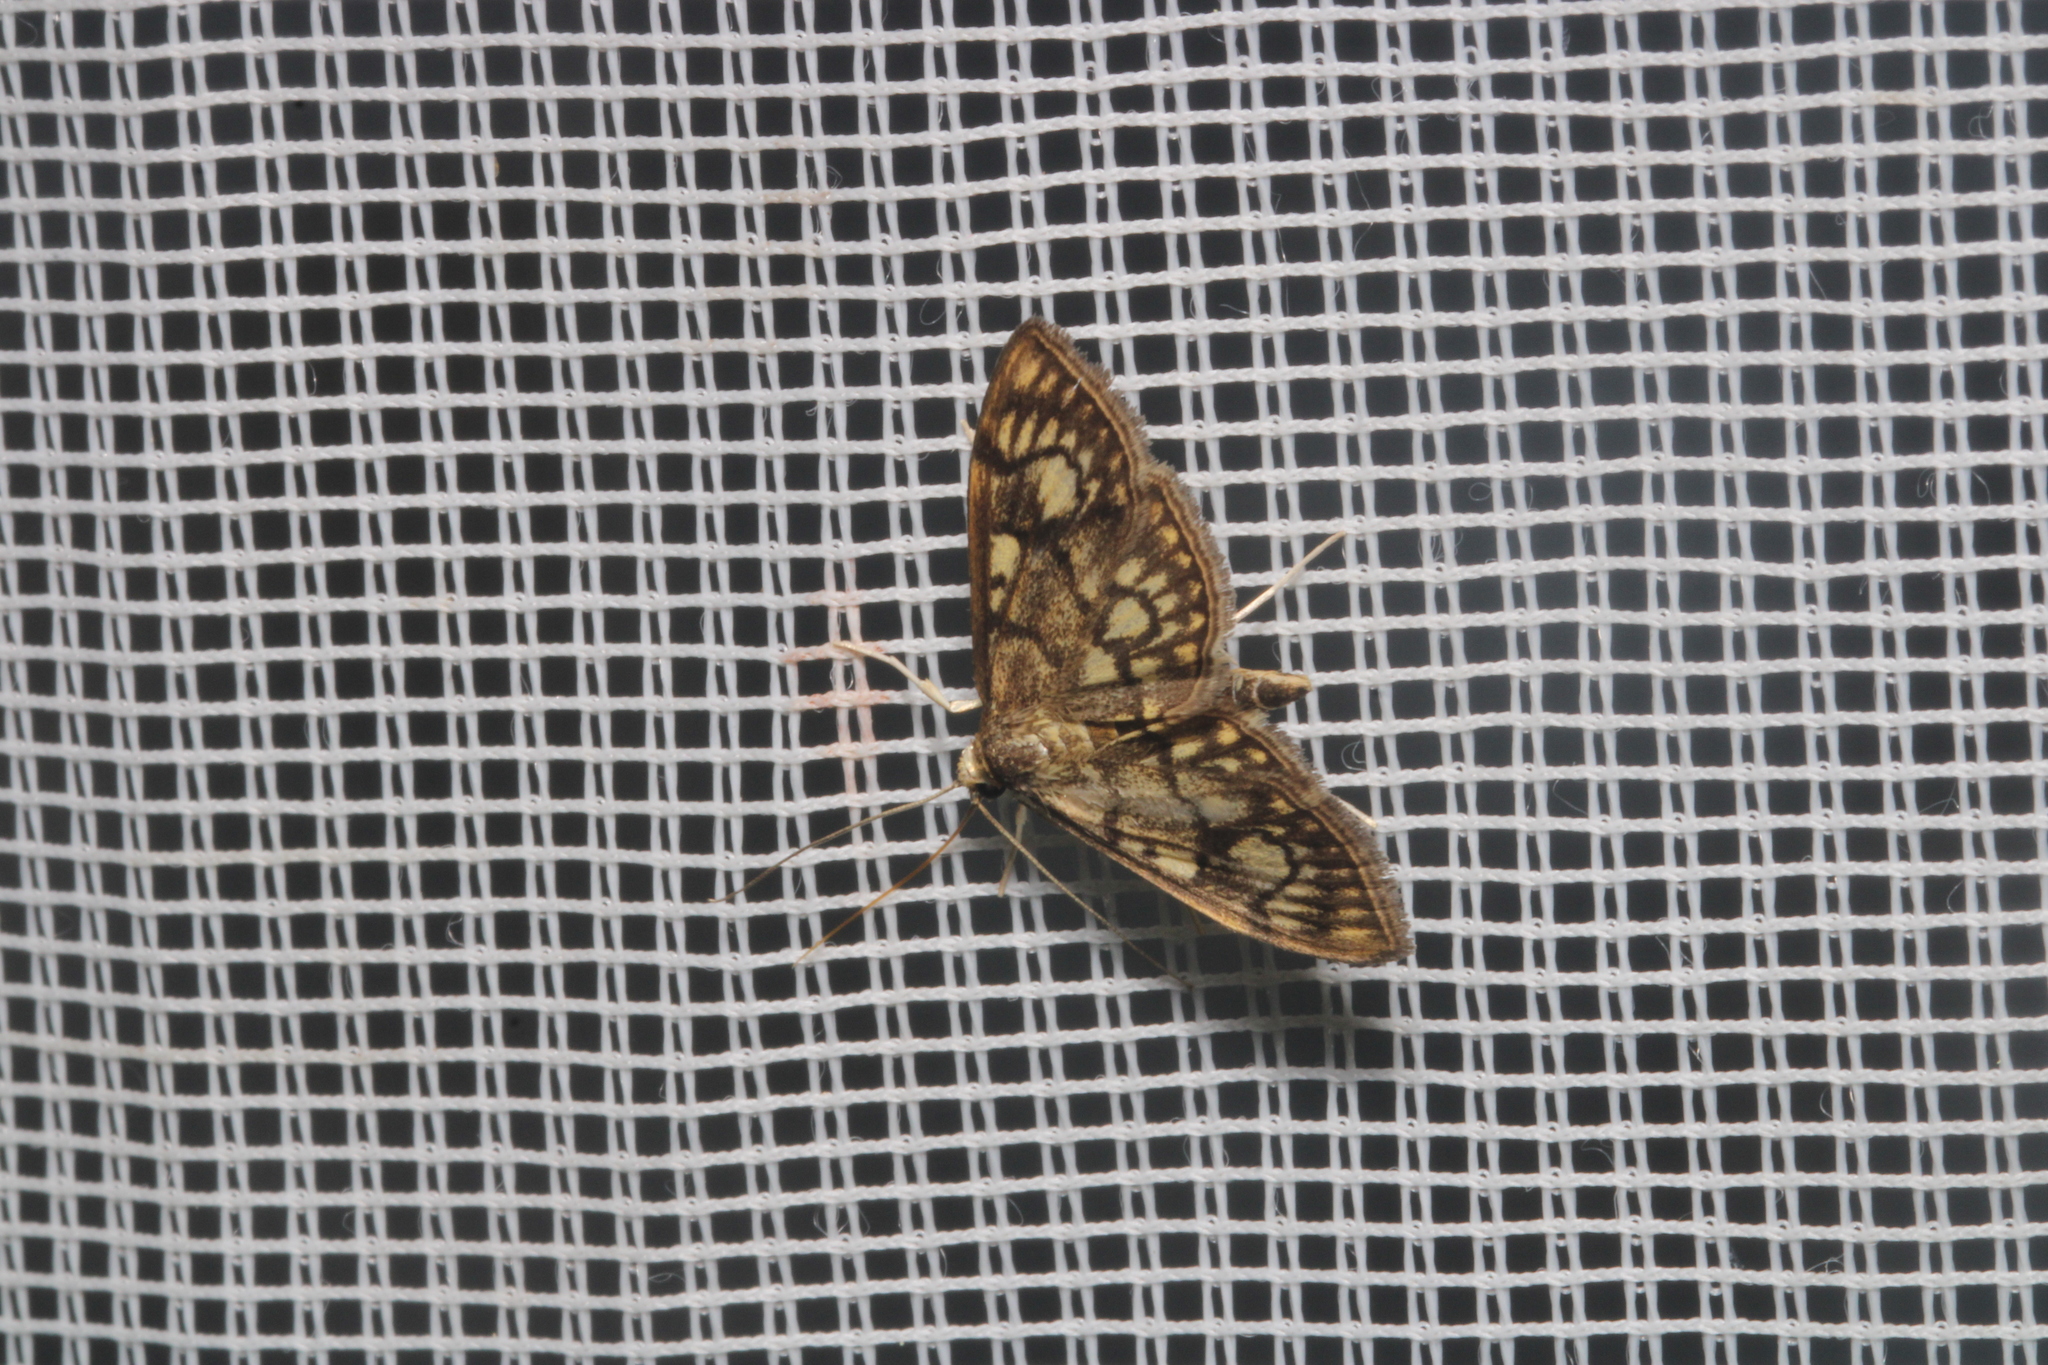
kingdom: Animalia
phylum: Arthropoda
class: Insecta
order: Lepidoptera
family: Crambidae
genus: Anania
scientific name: Anania stachydalis
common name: Woundwort pearl
